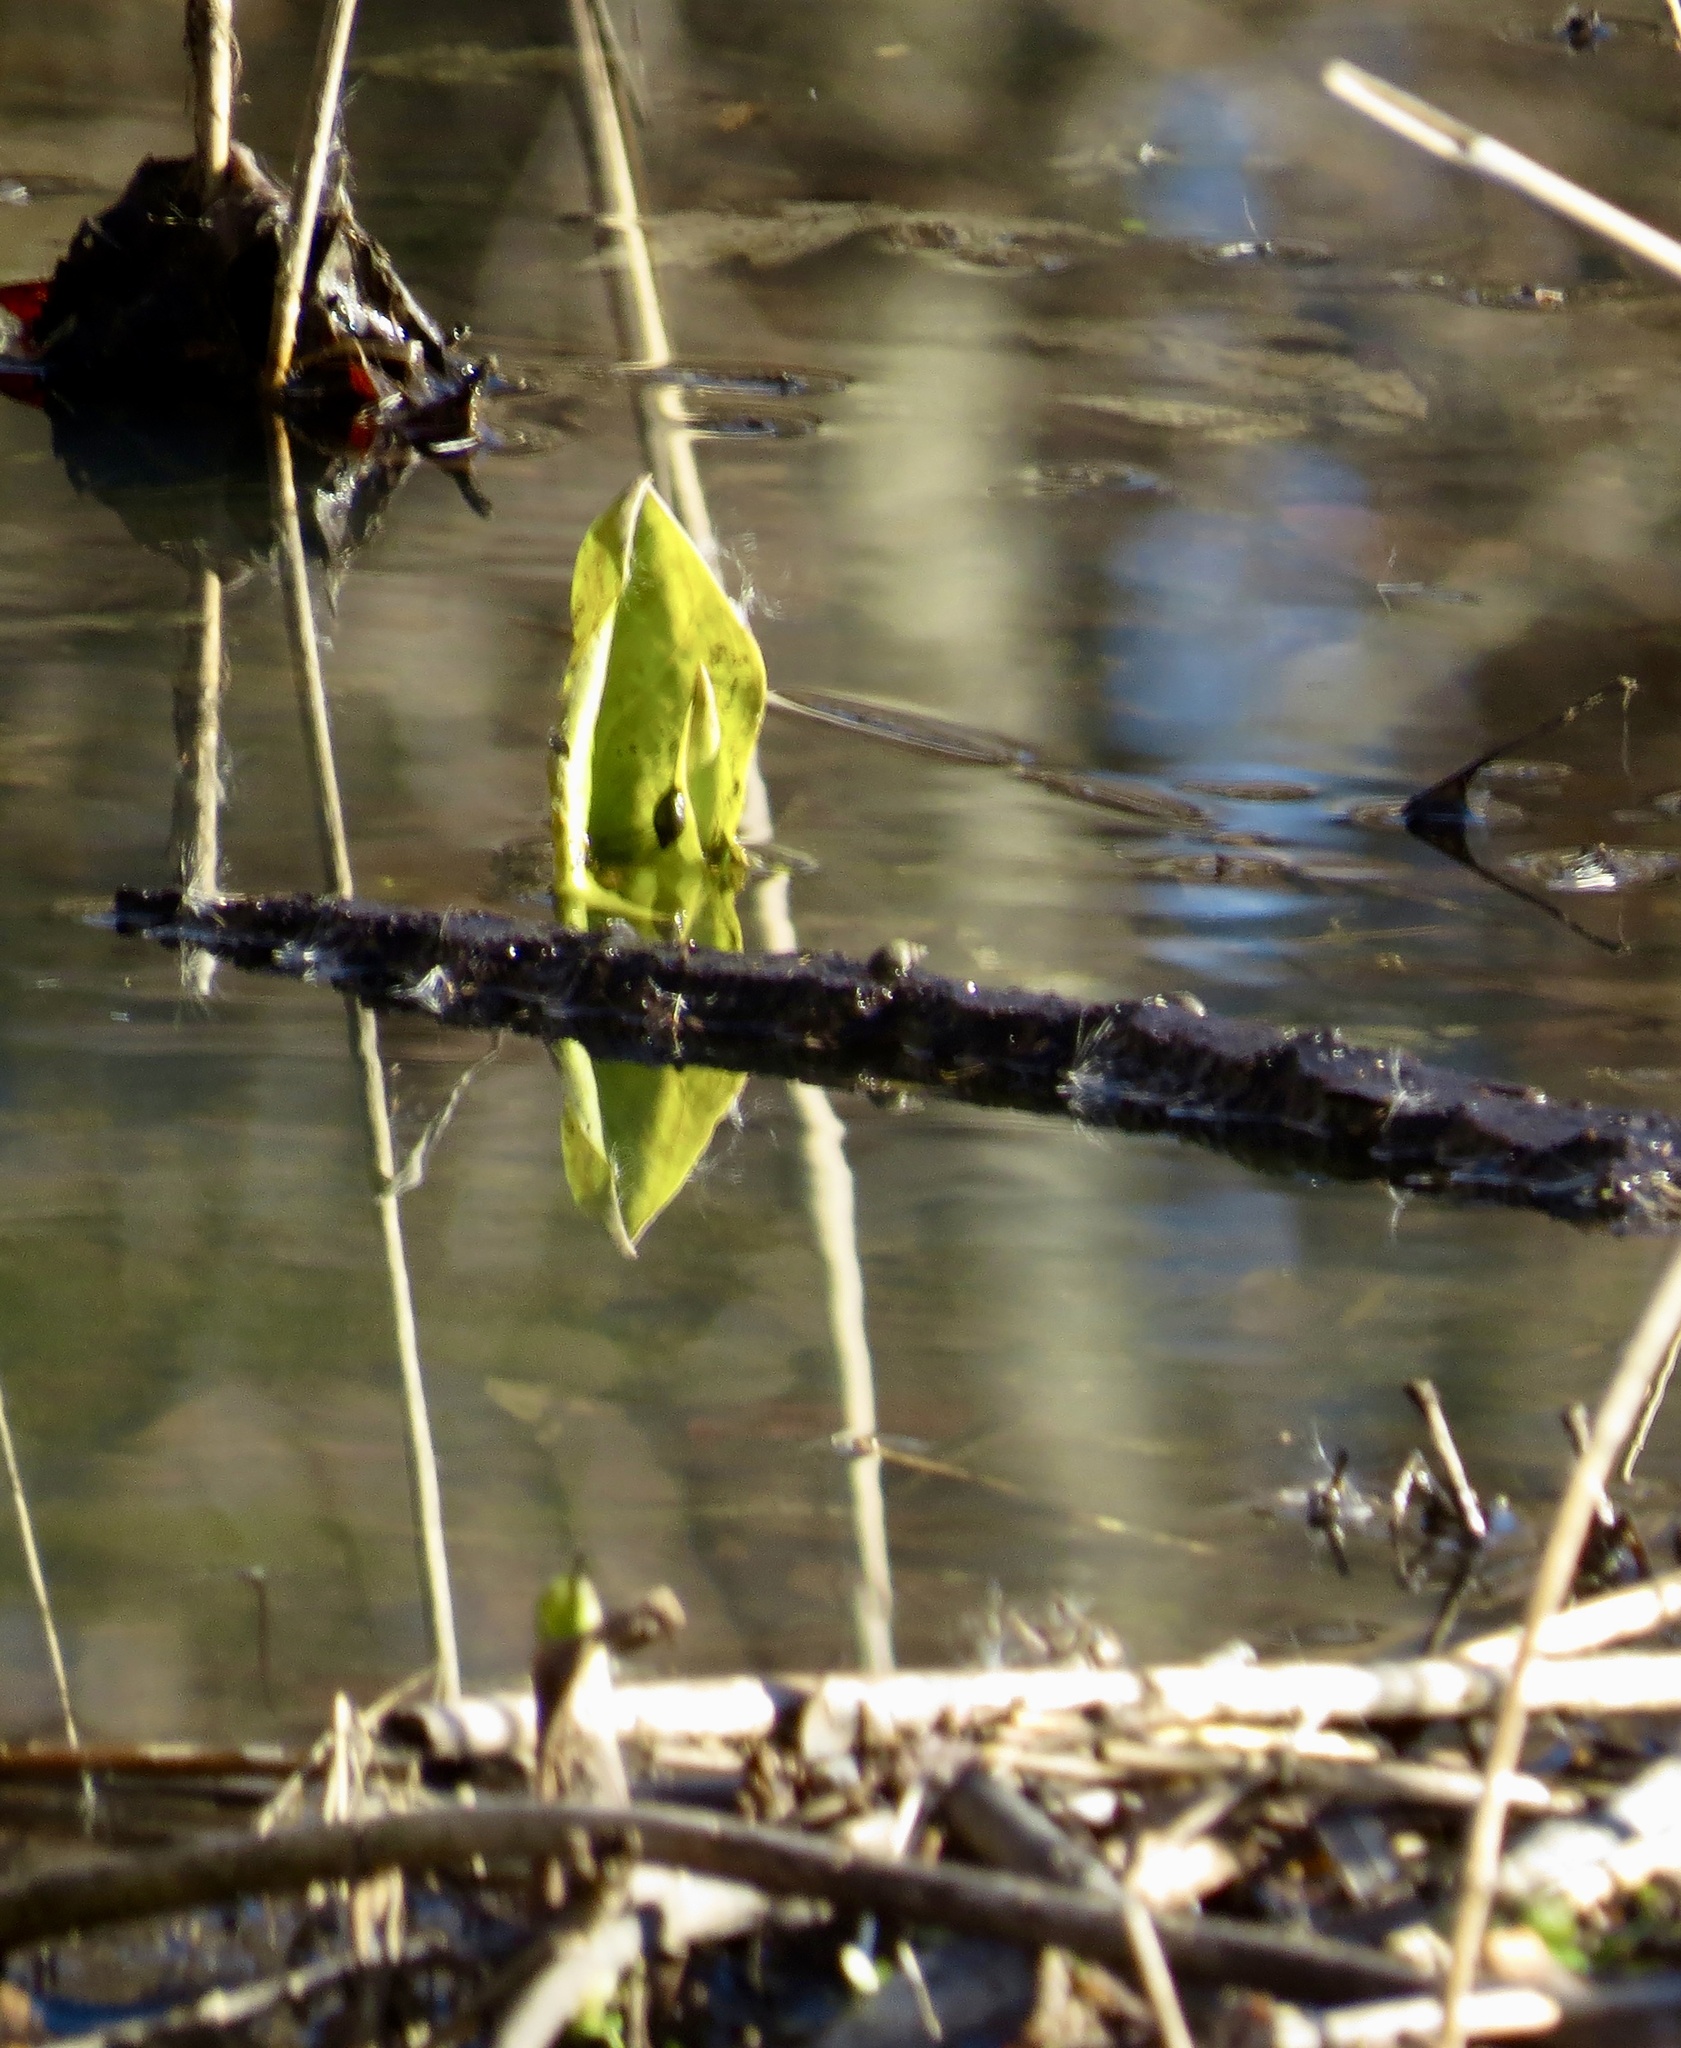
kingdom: Plantae
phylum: Tracheophyta
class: Liliopsida
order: Alismatales
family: Araceae
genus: Symplocarpus
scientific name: Symplocarpus foetidus
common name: Eastern skunk cabbage
